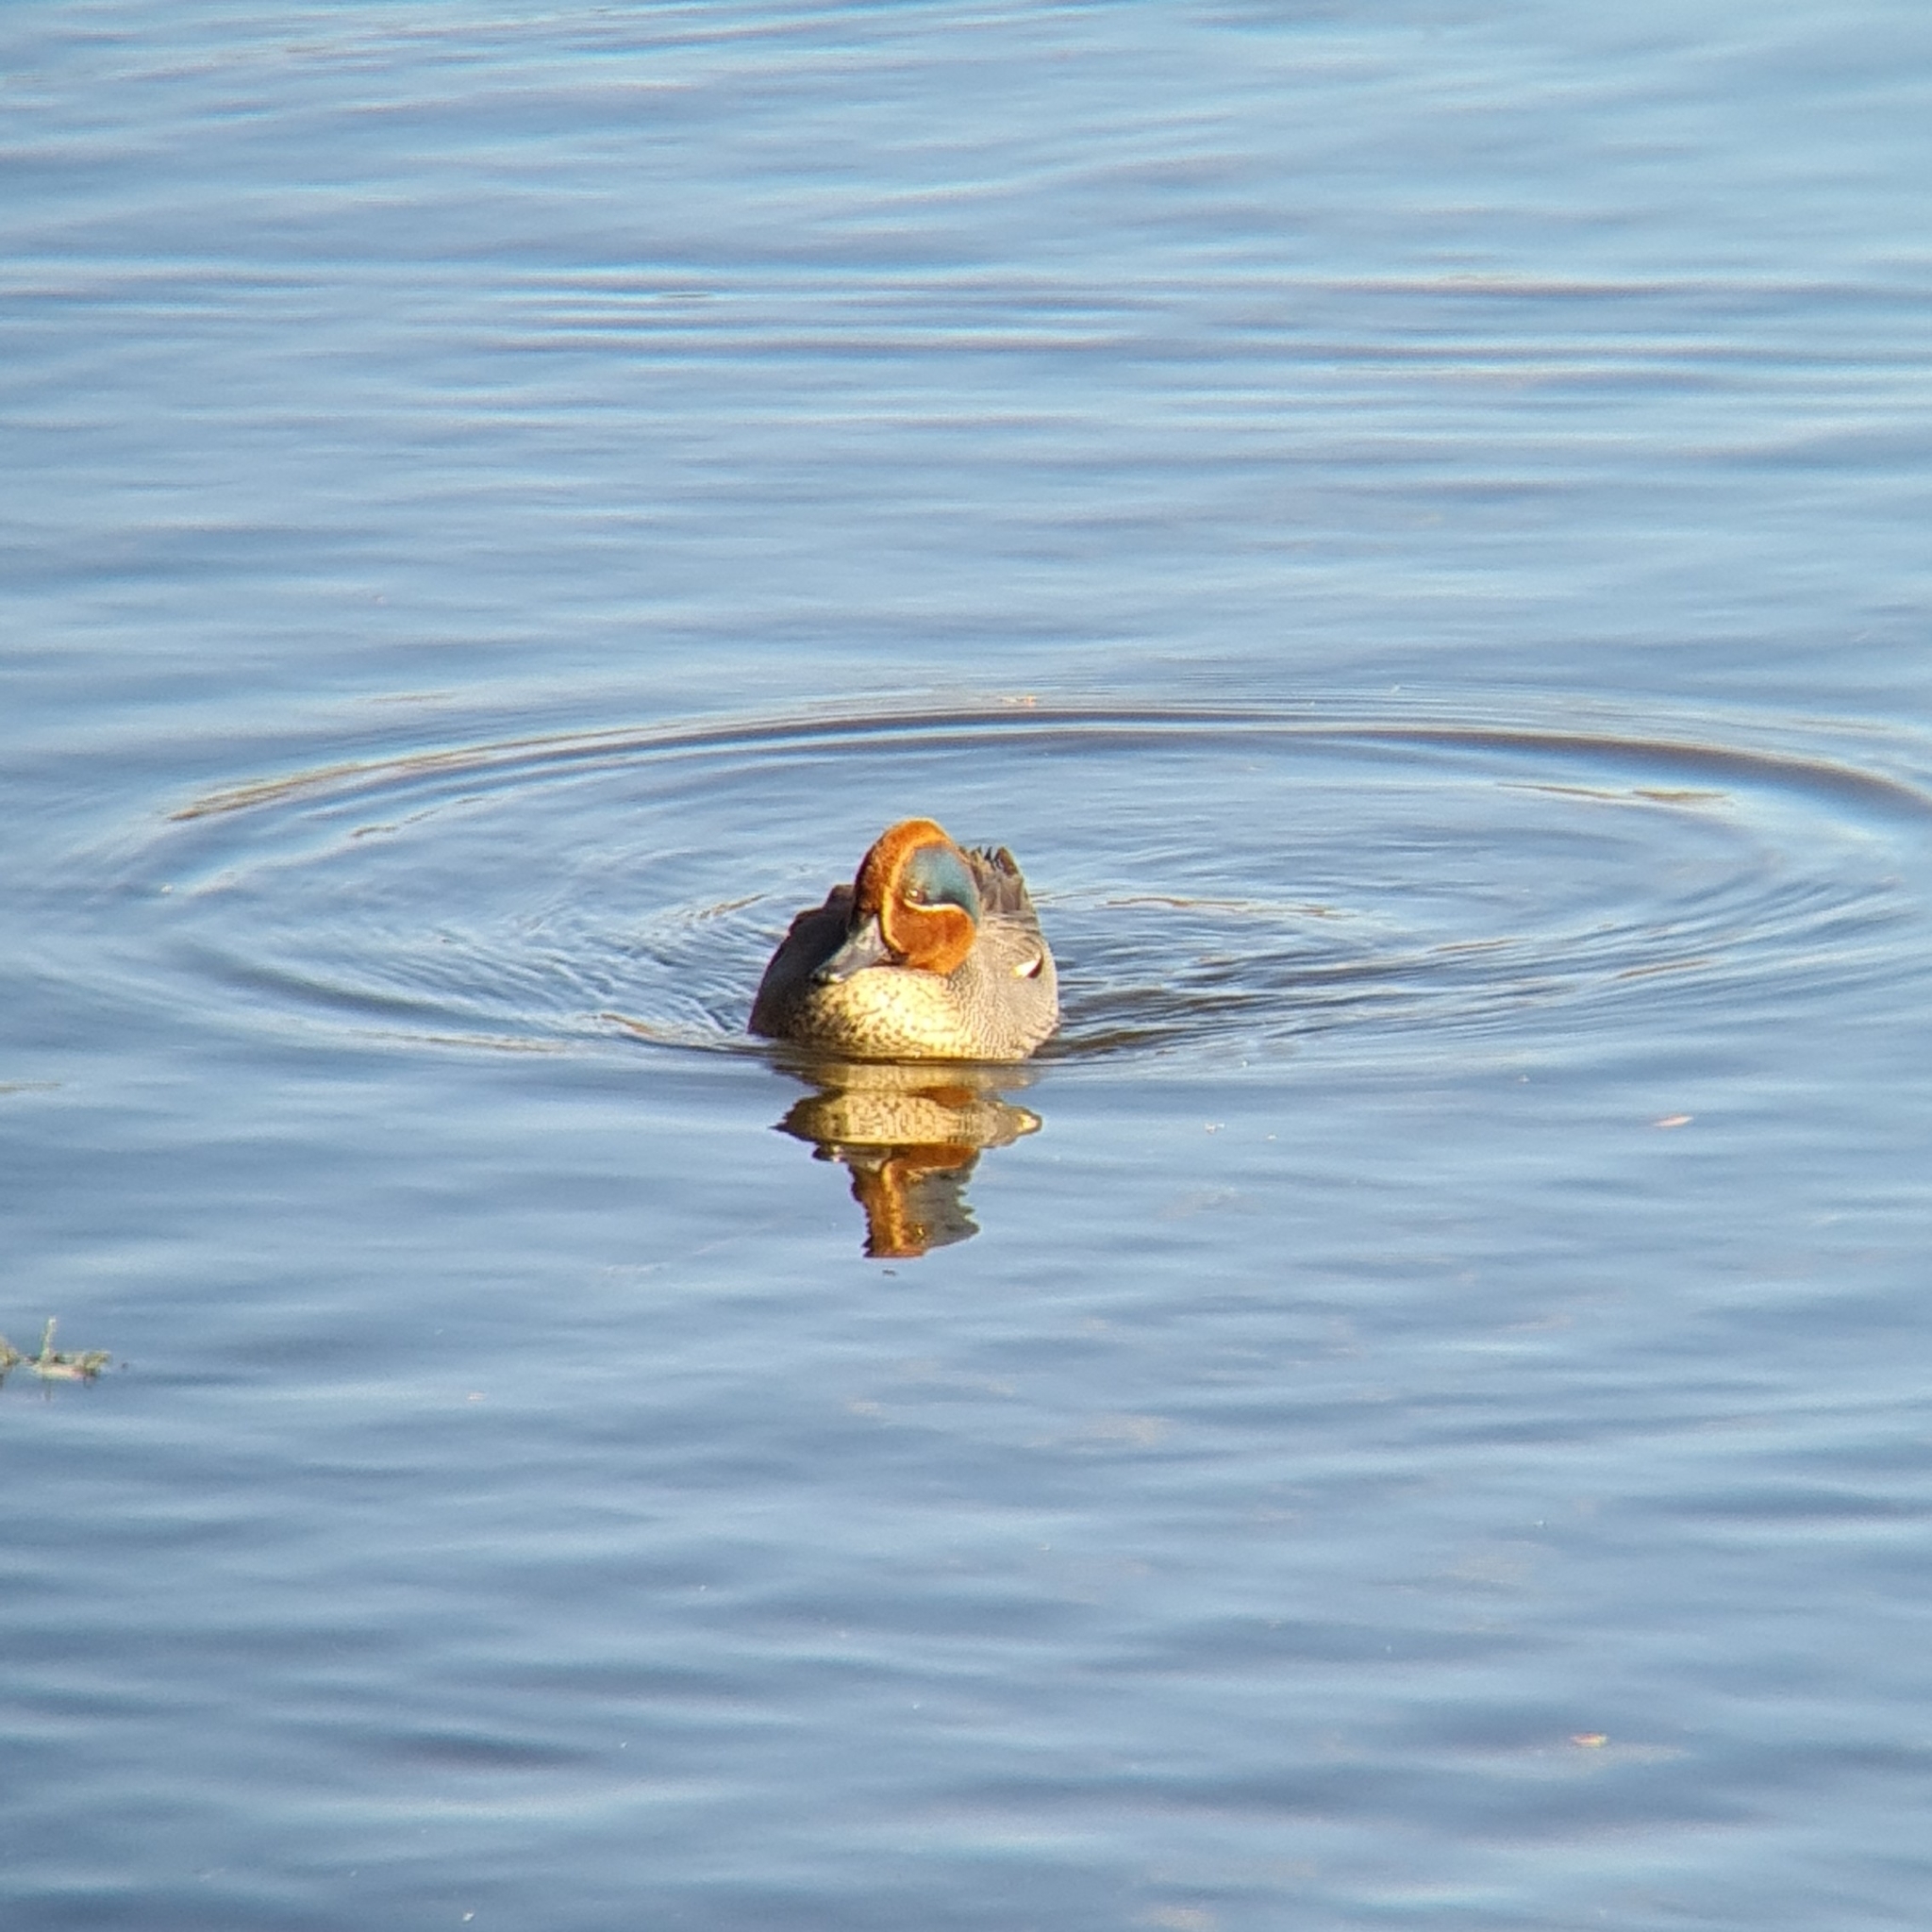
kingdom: Animalia
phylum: Chordata
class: Aves
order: Anseriformes
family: Anatidae
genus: Anas
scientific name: Anas crecca
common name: Eurasian teal
